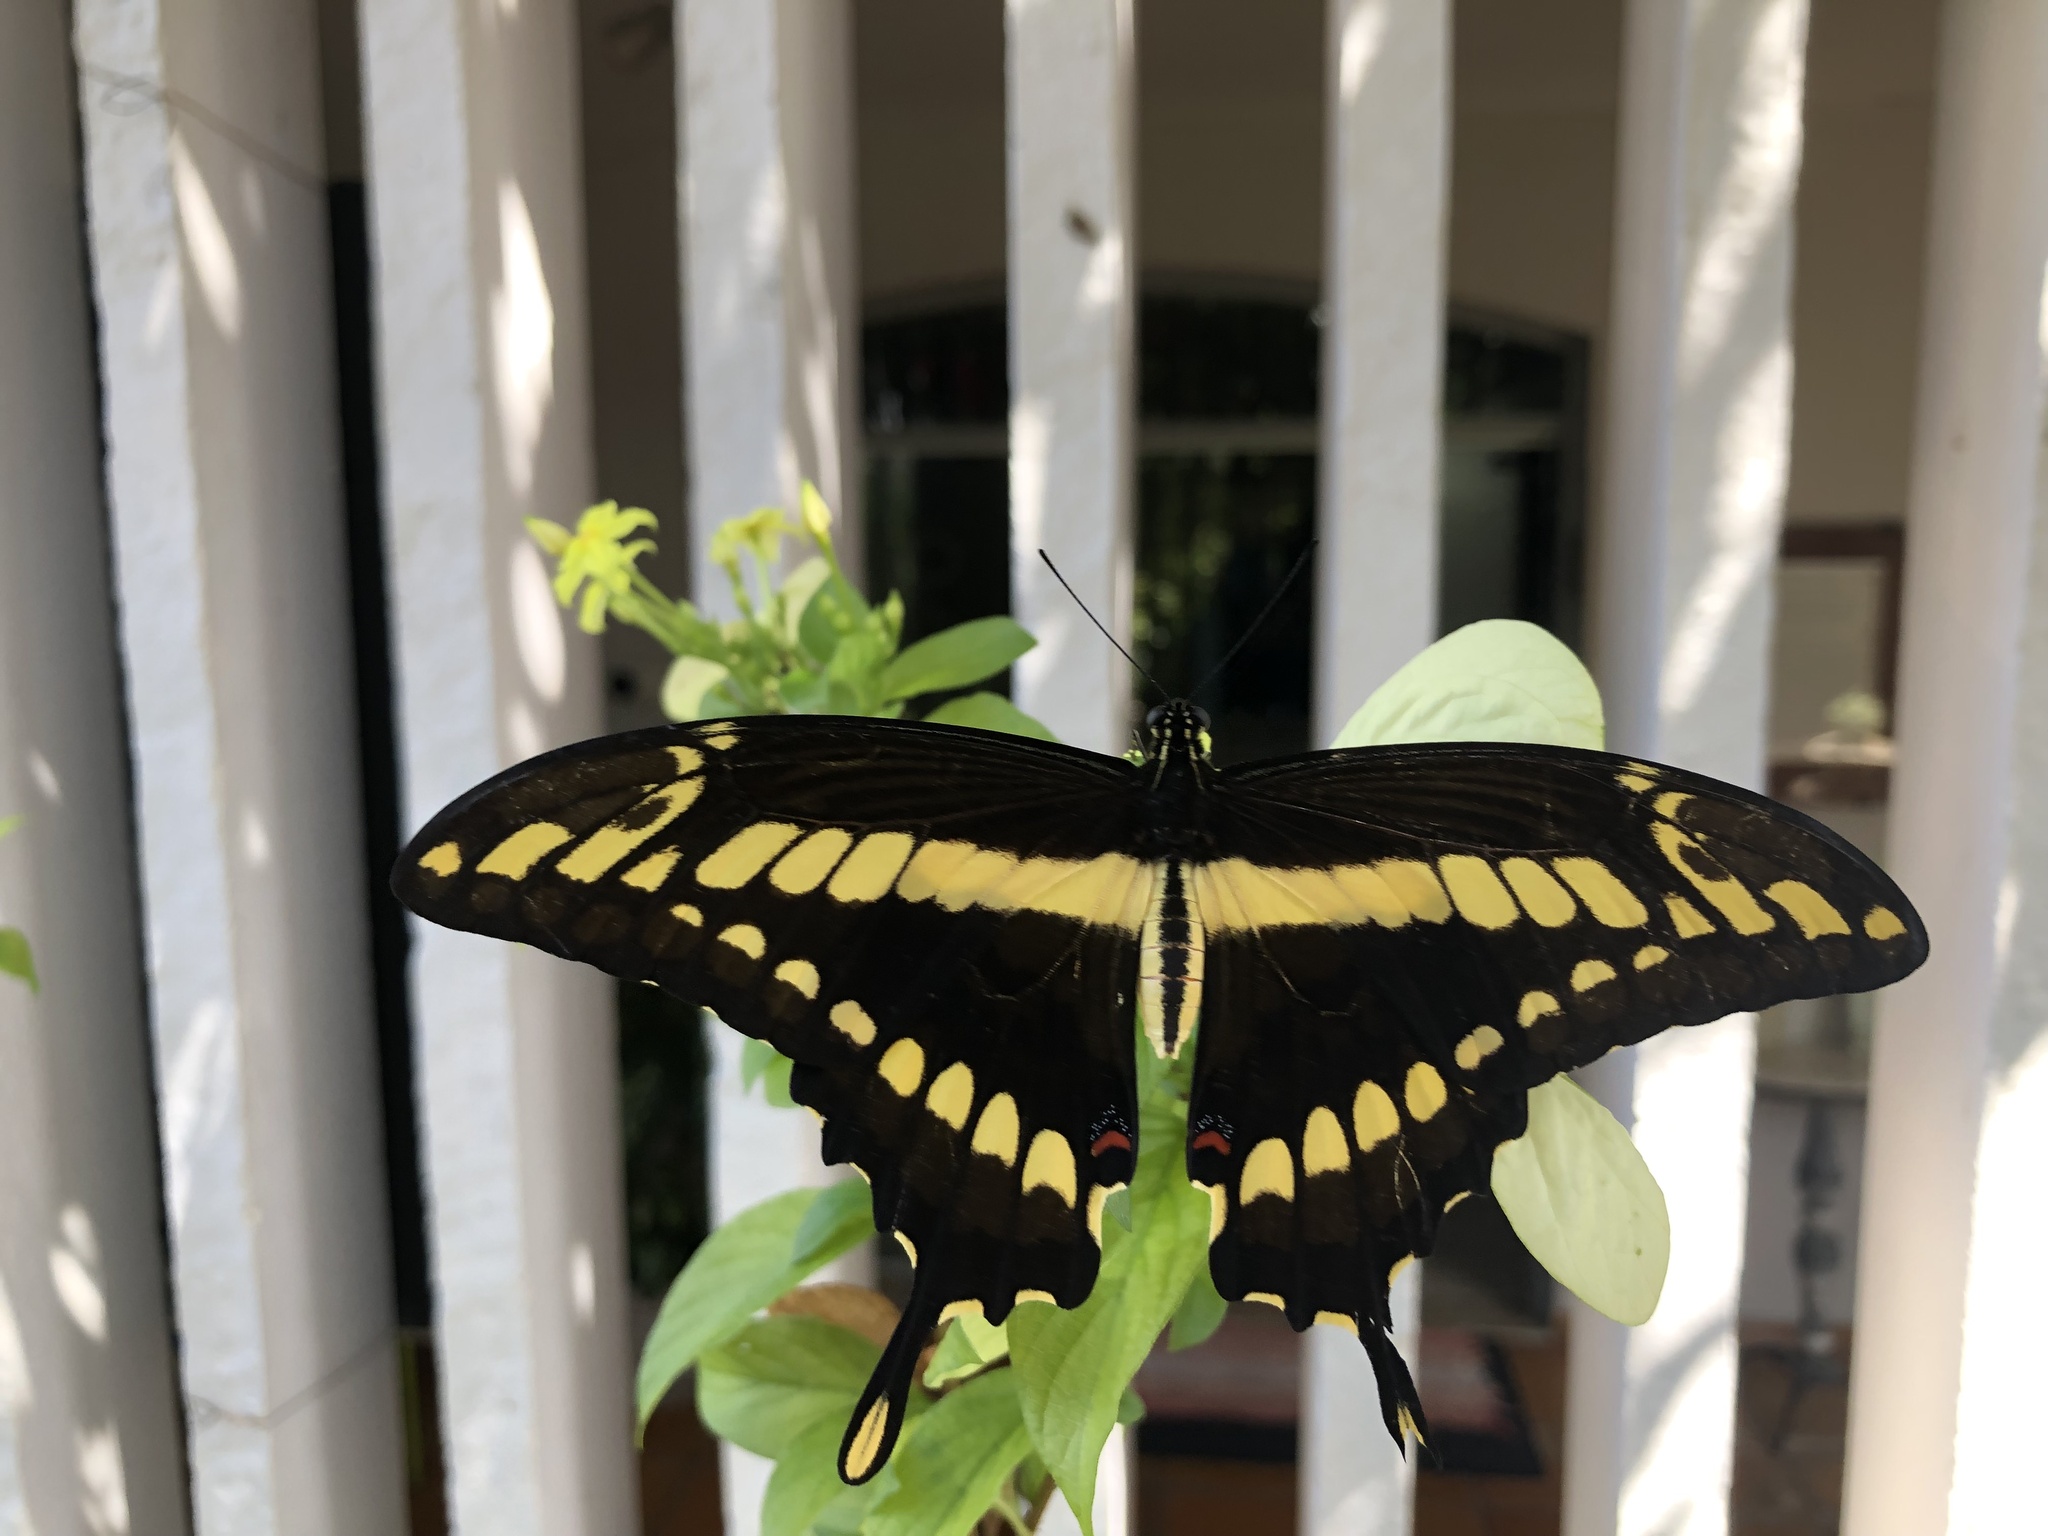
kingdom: Animalia
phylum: Arthropoda
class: Insecta
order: Lepidoptera
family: Papilionidae
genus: Papilio
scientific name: Papilio thoas
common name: King swallowtail
